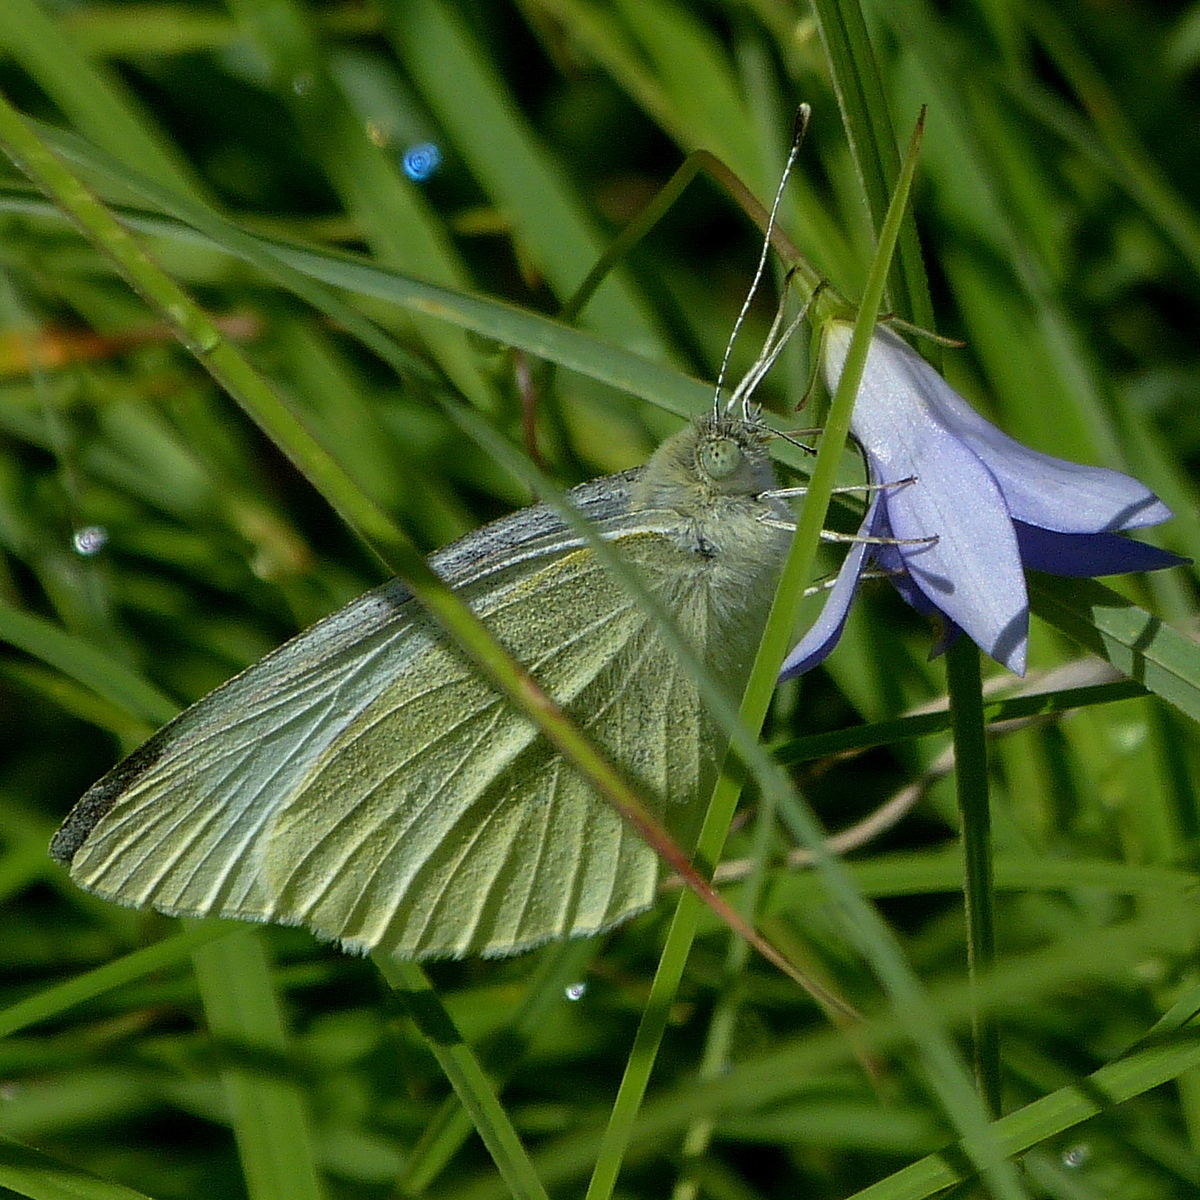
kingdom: Animalia
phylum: Arthropoda
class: Insecta
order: Lepidoptera
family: Pieridae
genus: Pieris
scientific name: Pieris rapae
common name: Small white
